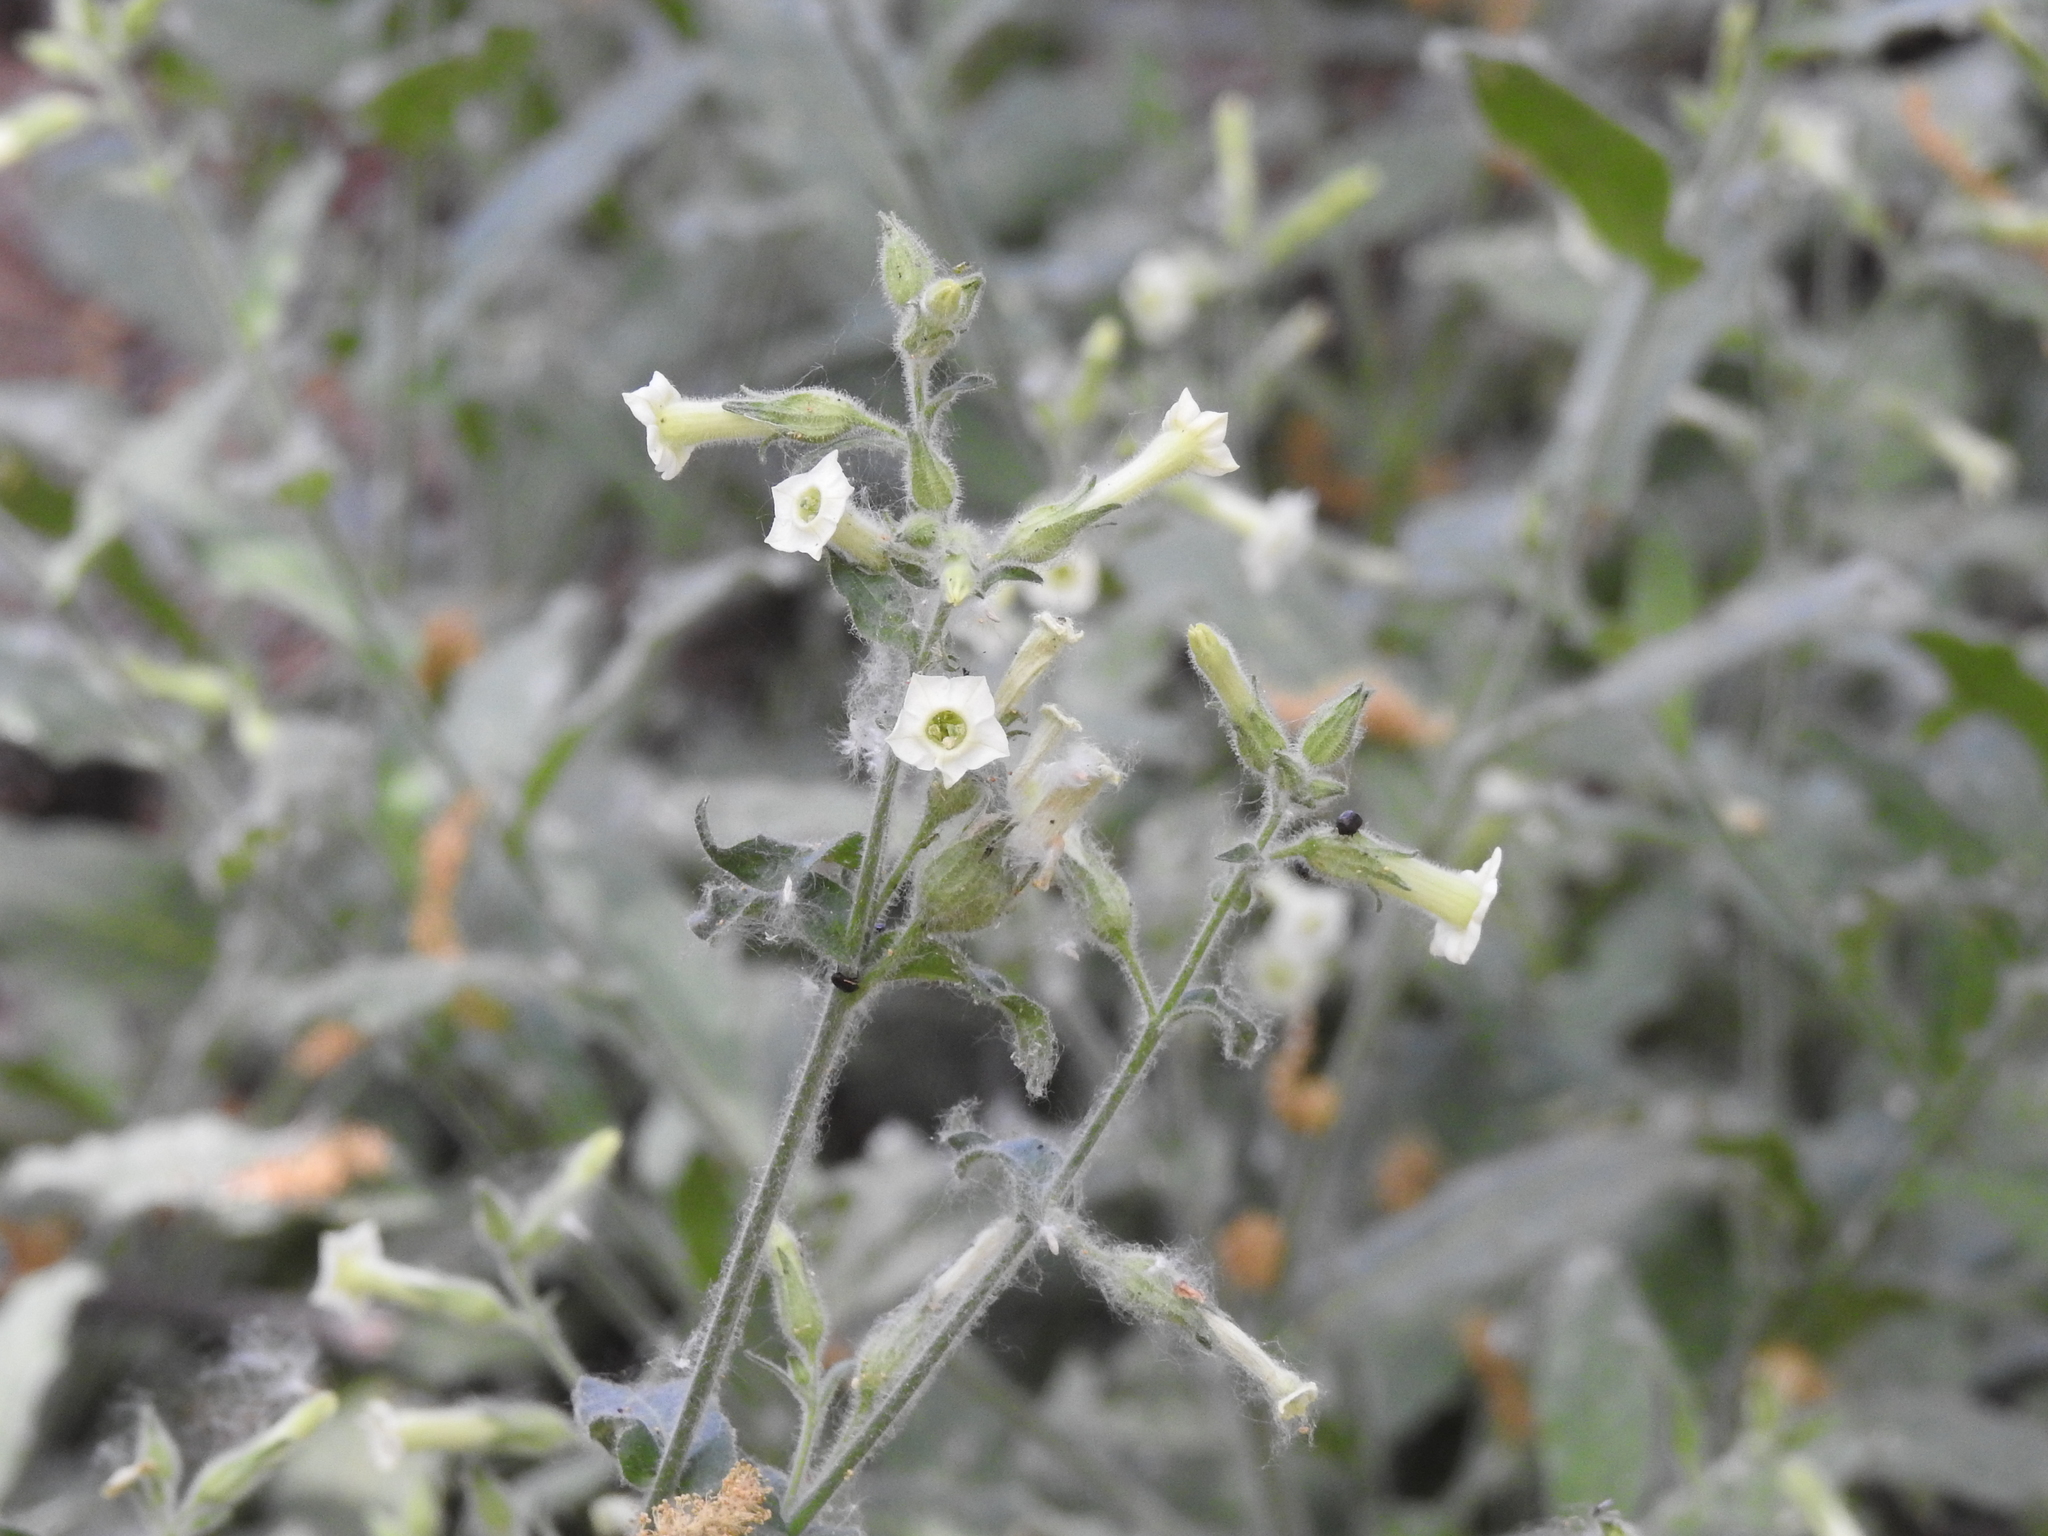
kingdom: Plantae
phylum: Tracheophyta
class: Magnoliopsida
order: Solanales
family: Solanaceae
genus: Nicotiana
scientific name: Nicotiana obtusifolia
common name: Desert tobacco
